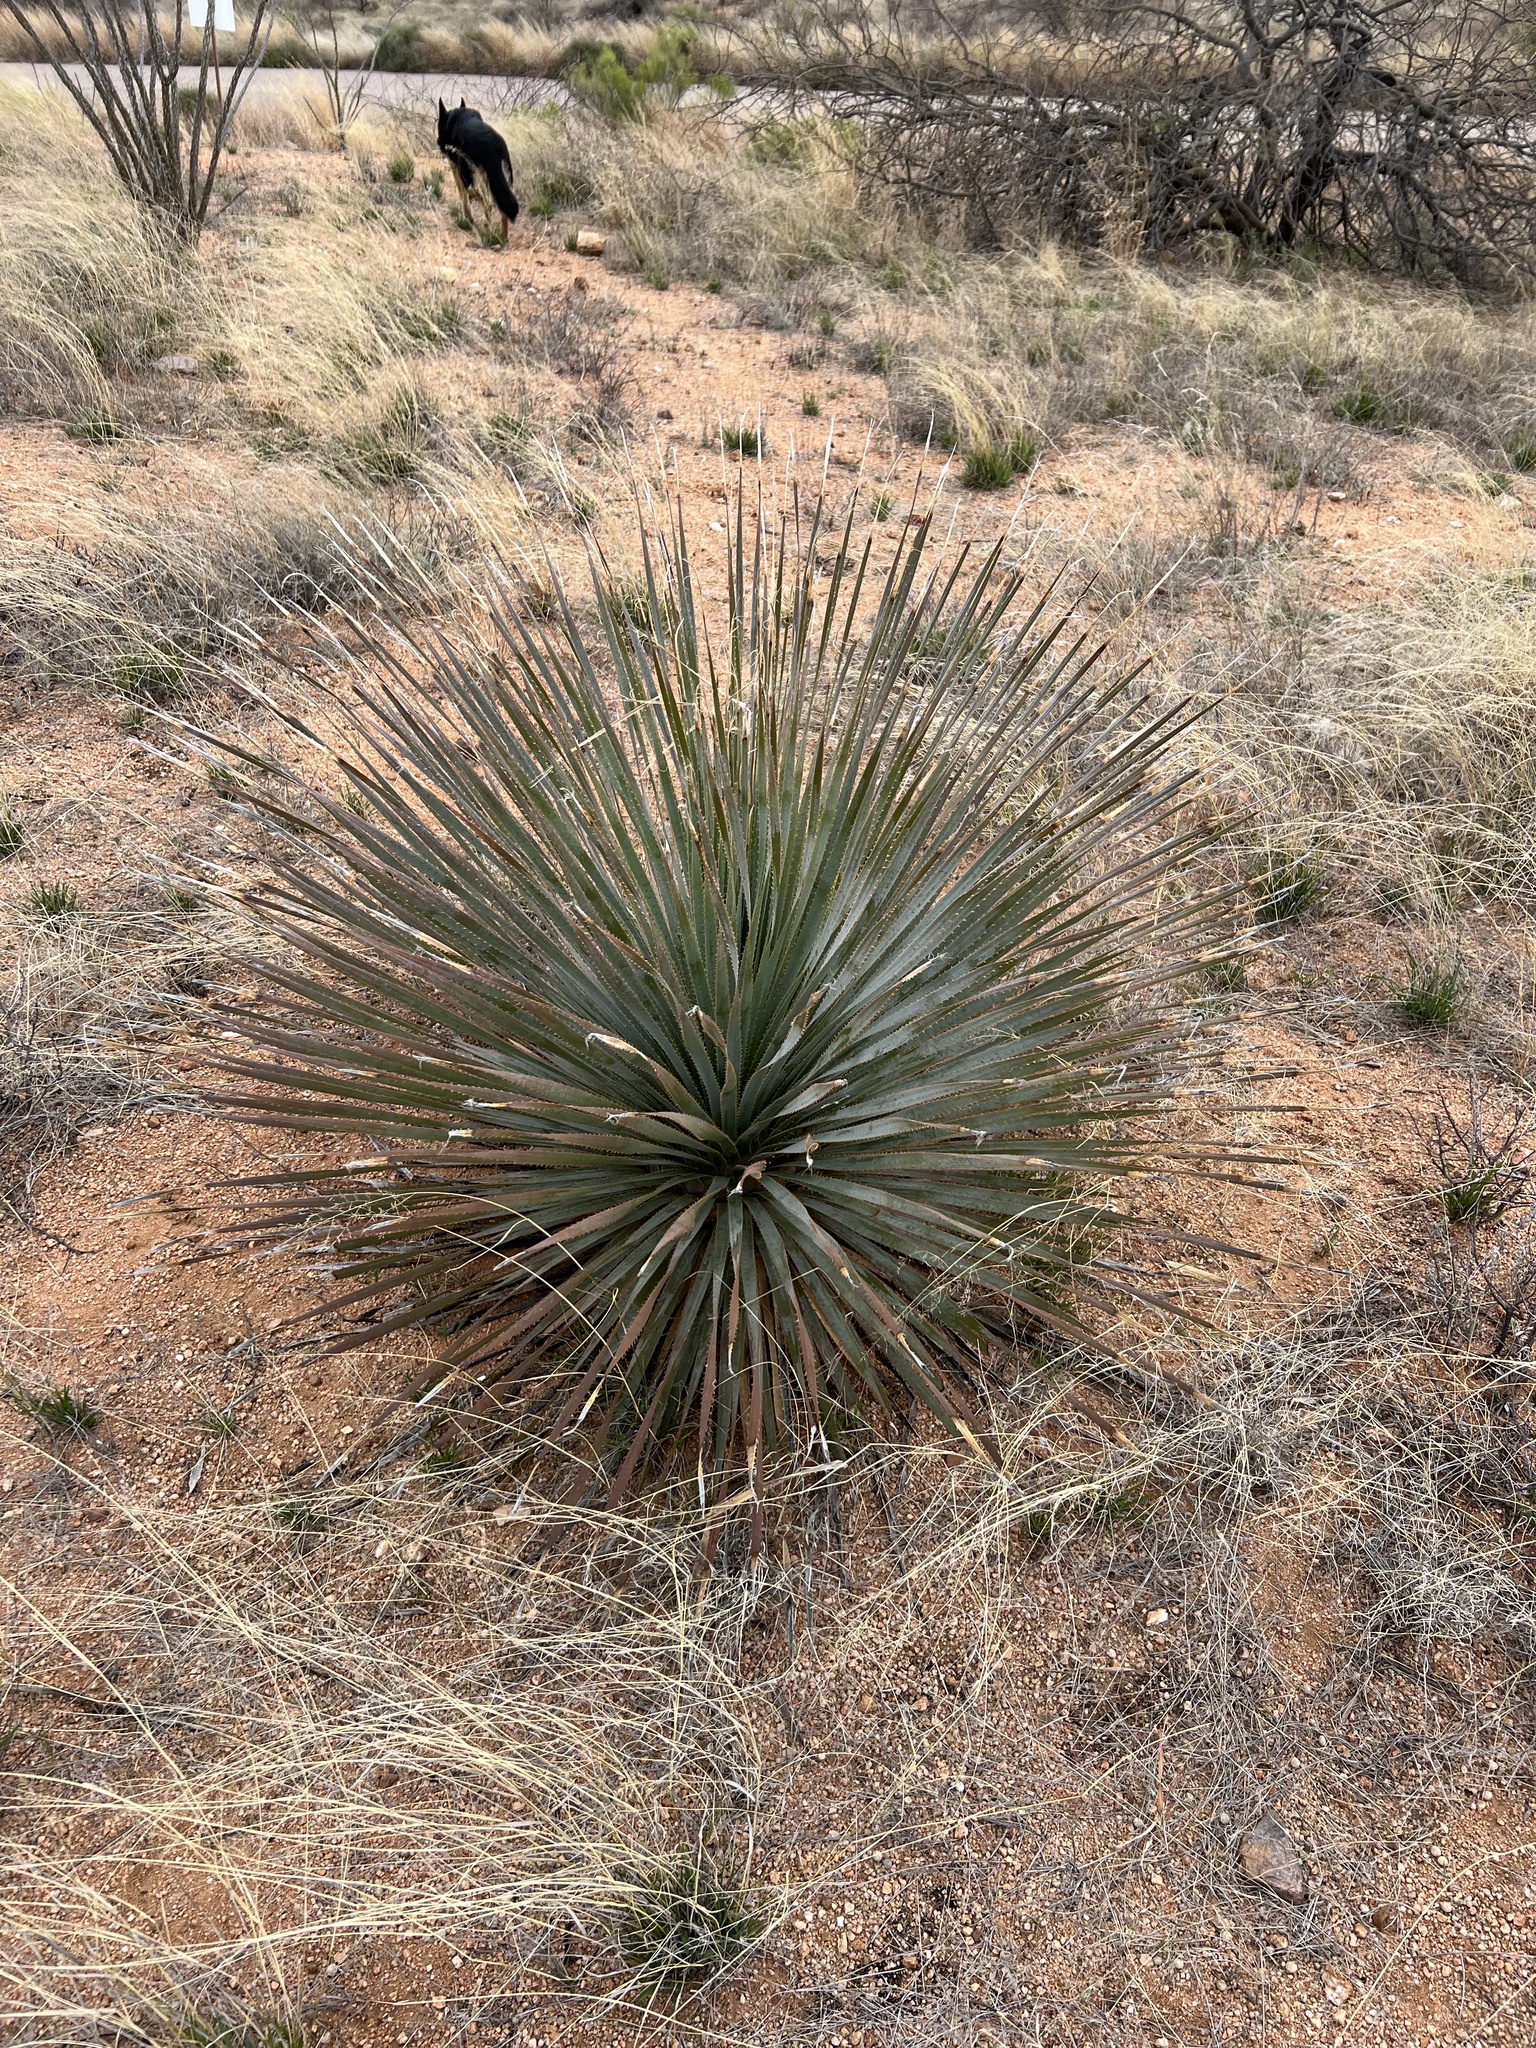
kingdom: Plantae
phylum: Tracheophyta
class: Liliopsida
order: Asparagales
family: Asparagaceae
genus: Dasylirion
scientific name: Dasylirion wheeleri
